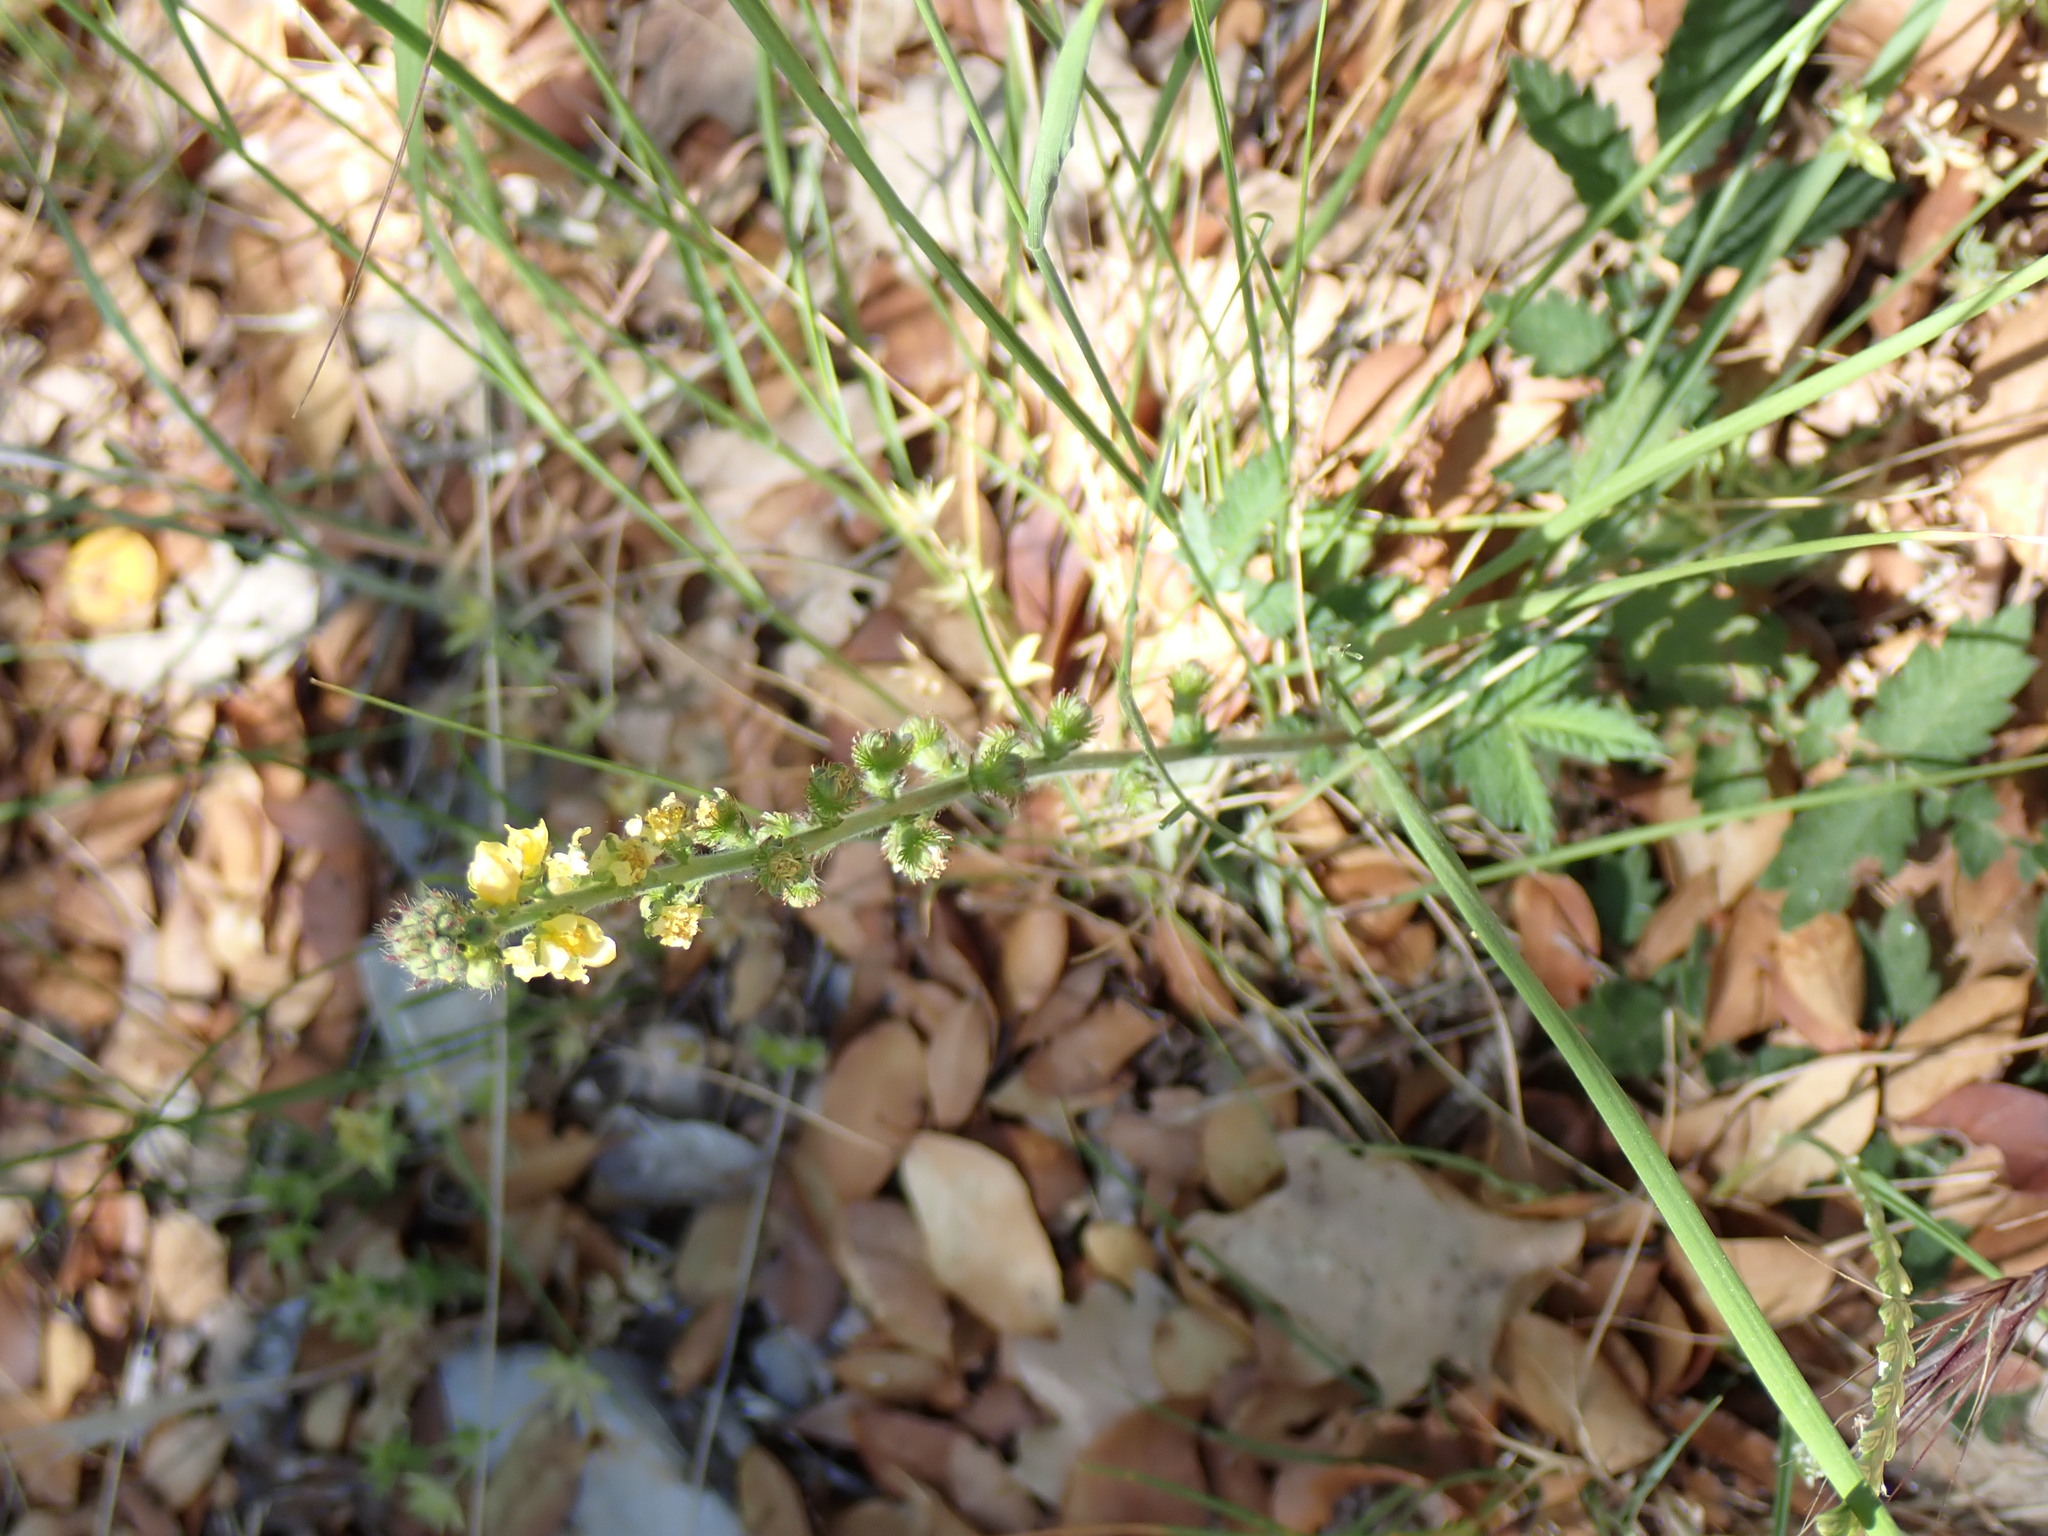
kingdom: Plantae
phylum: Tracheophyta
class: Magnoliopsida
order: Rosales
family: Rosaceae
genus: Agrimonia
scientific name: Agrimonia eupatoria
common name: Agrimony
